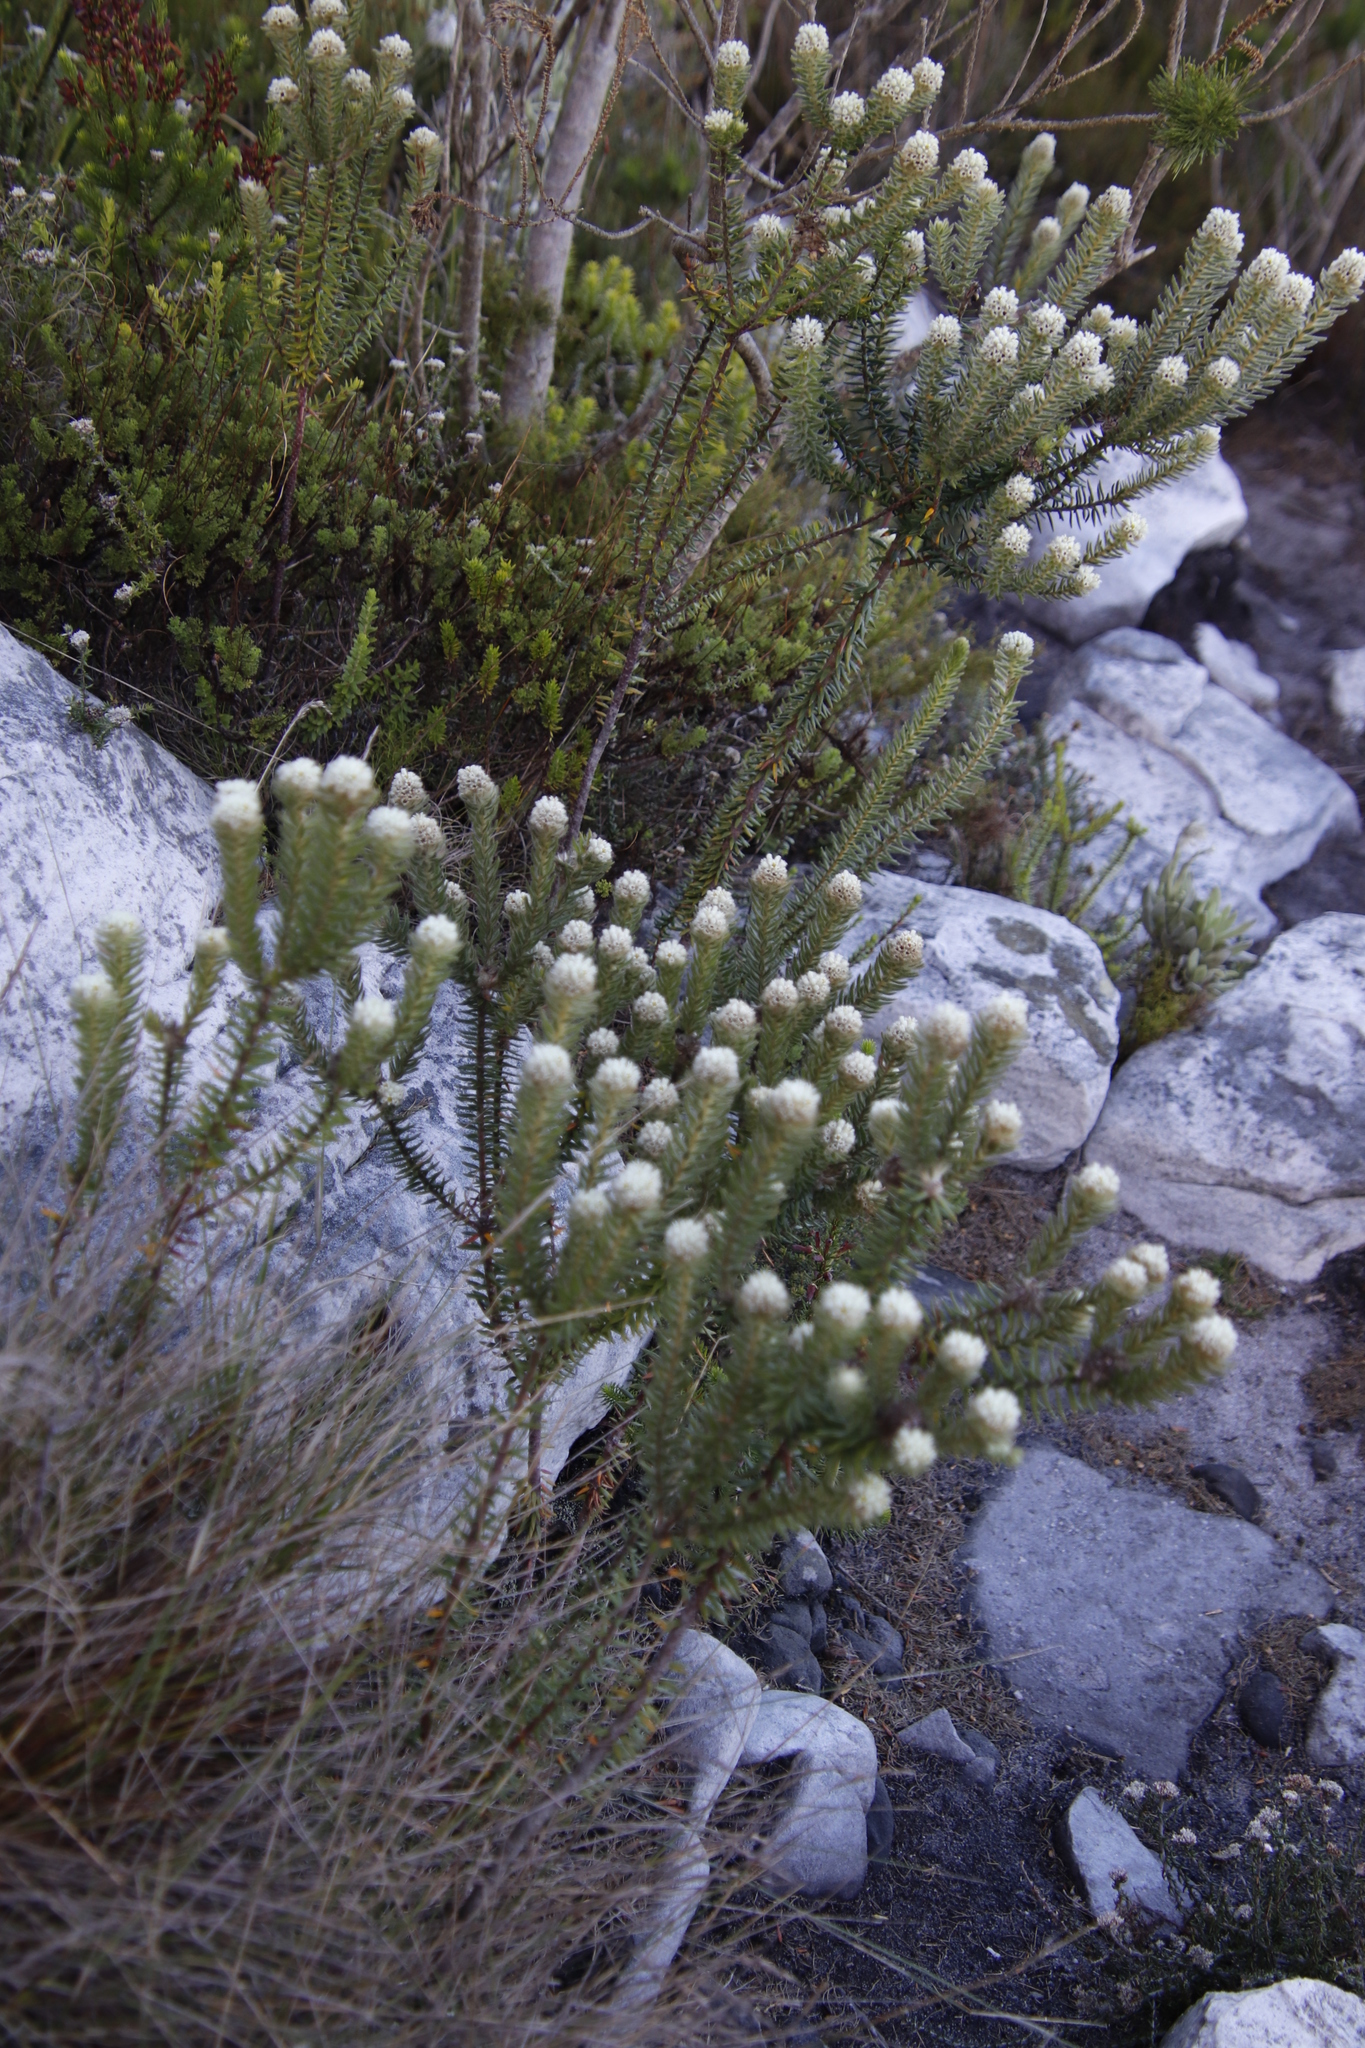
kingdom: Plantae
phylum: Tracheophyta
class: Magnoliopsida
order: Rosales
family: Rhamnaceae
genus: Phylica
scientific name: Phylica strigosa
